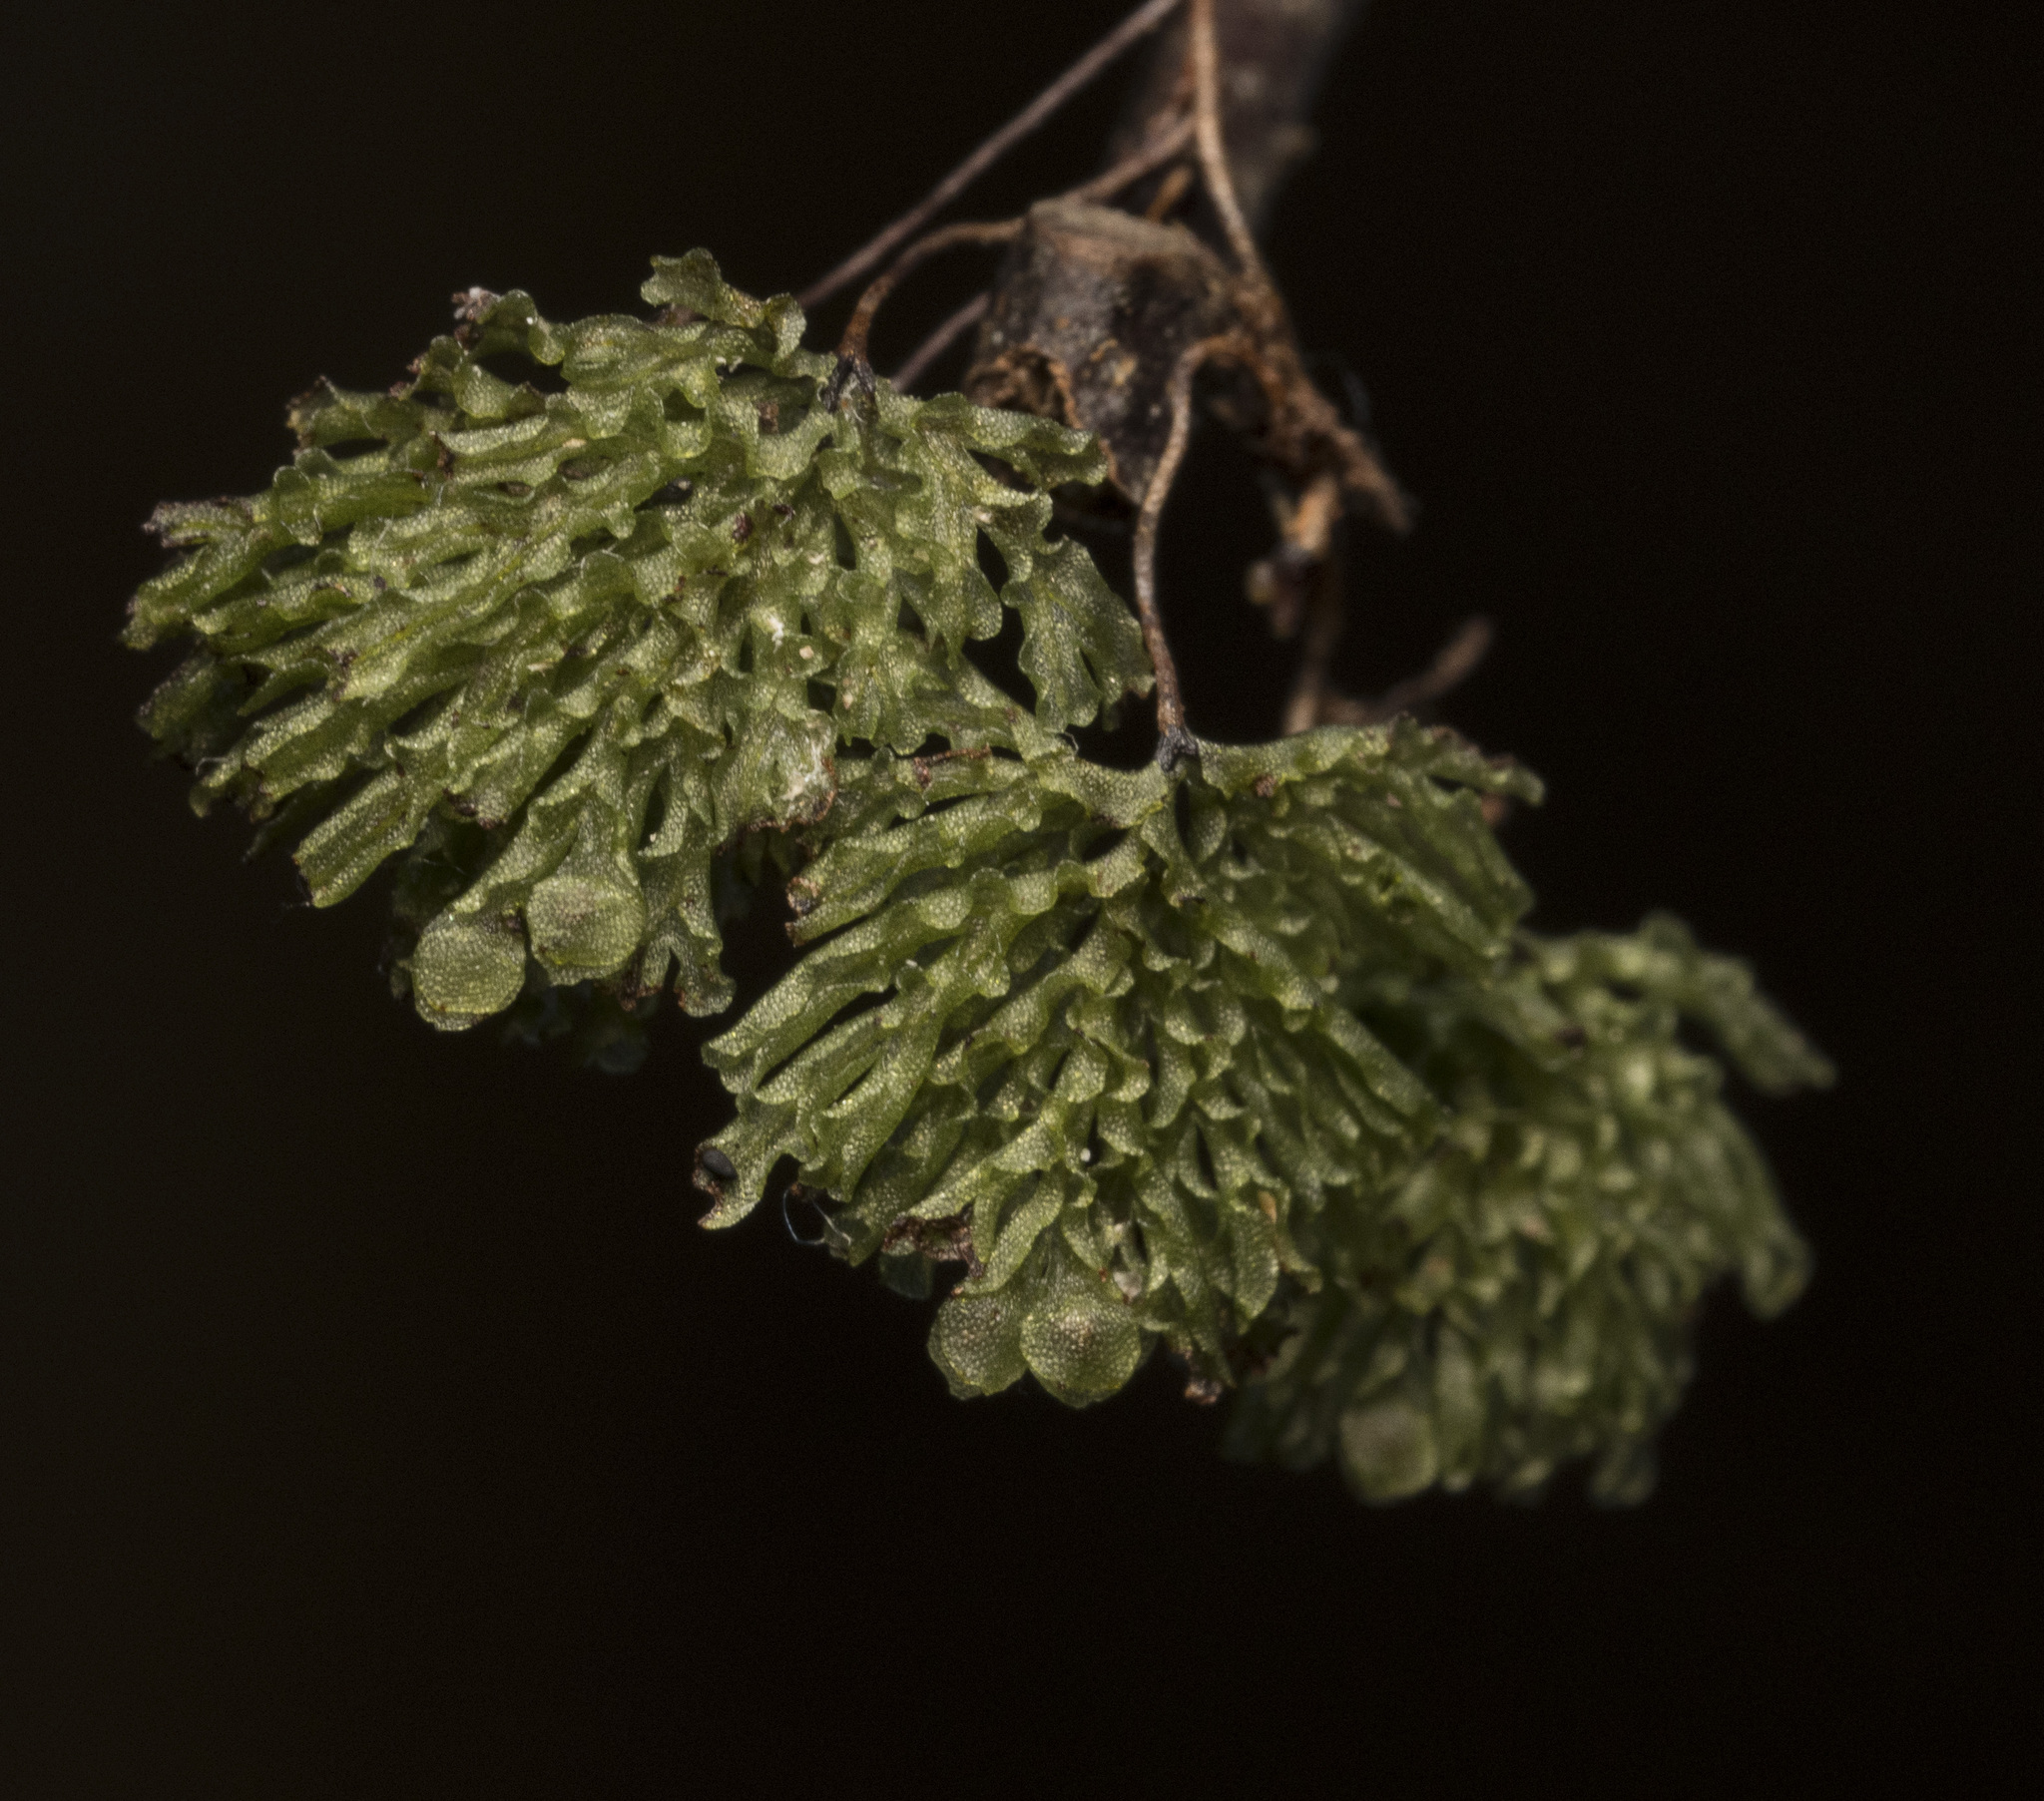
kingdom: Plantae
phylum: Tracheophyta
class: Polypodiopsida
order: Hymenophyllales
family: Hymenophyllaceae
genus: Hymenophyllum
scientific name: Hymenophyllum darwinii
